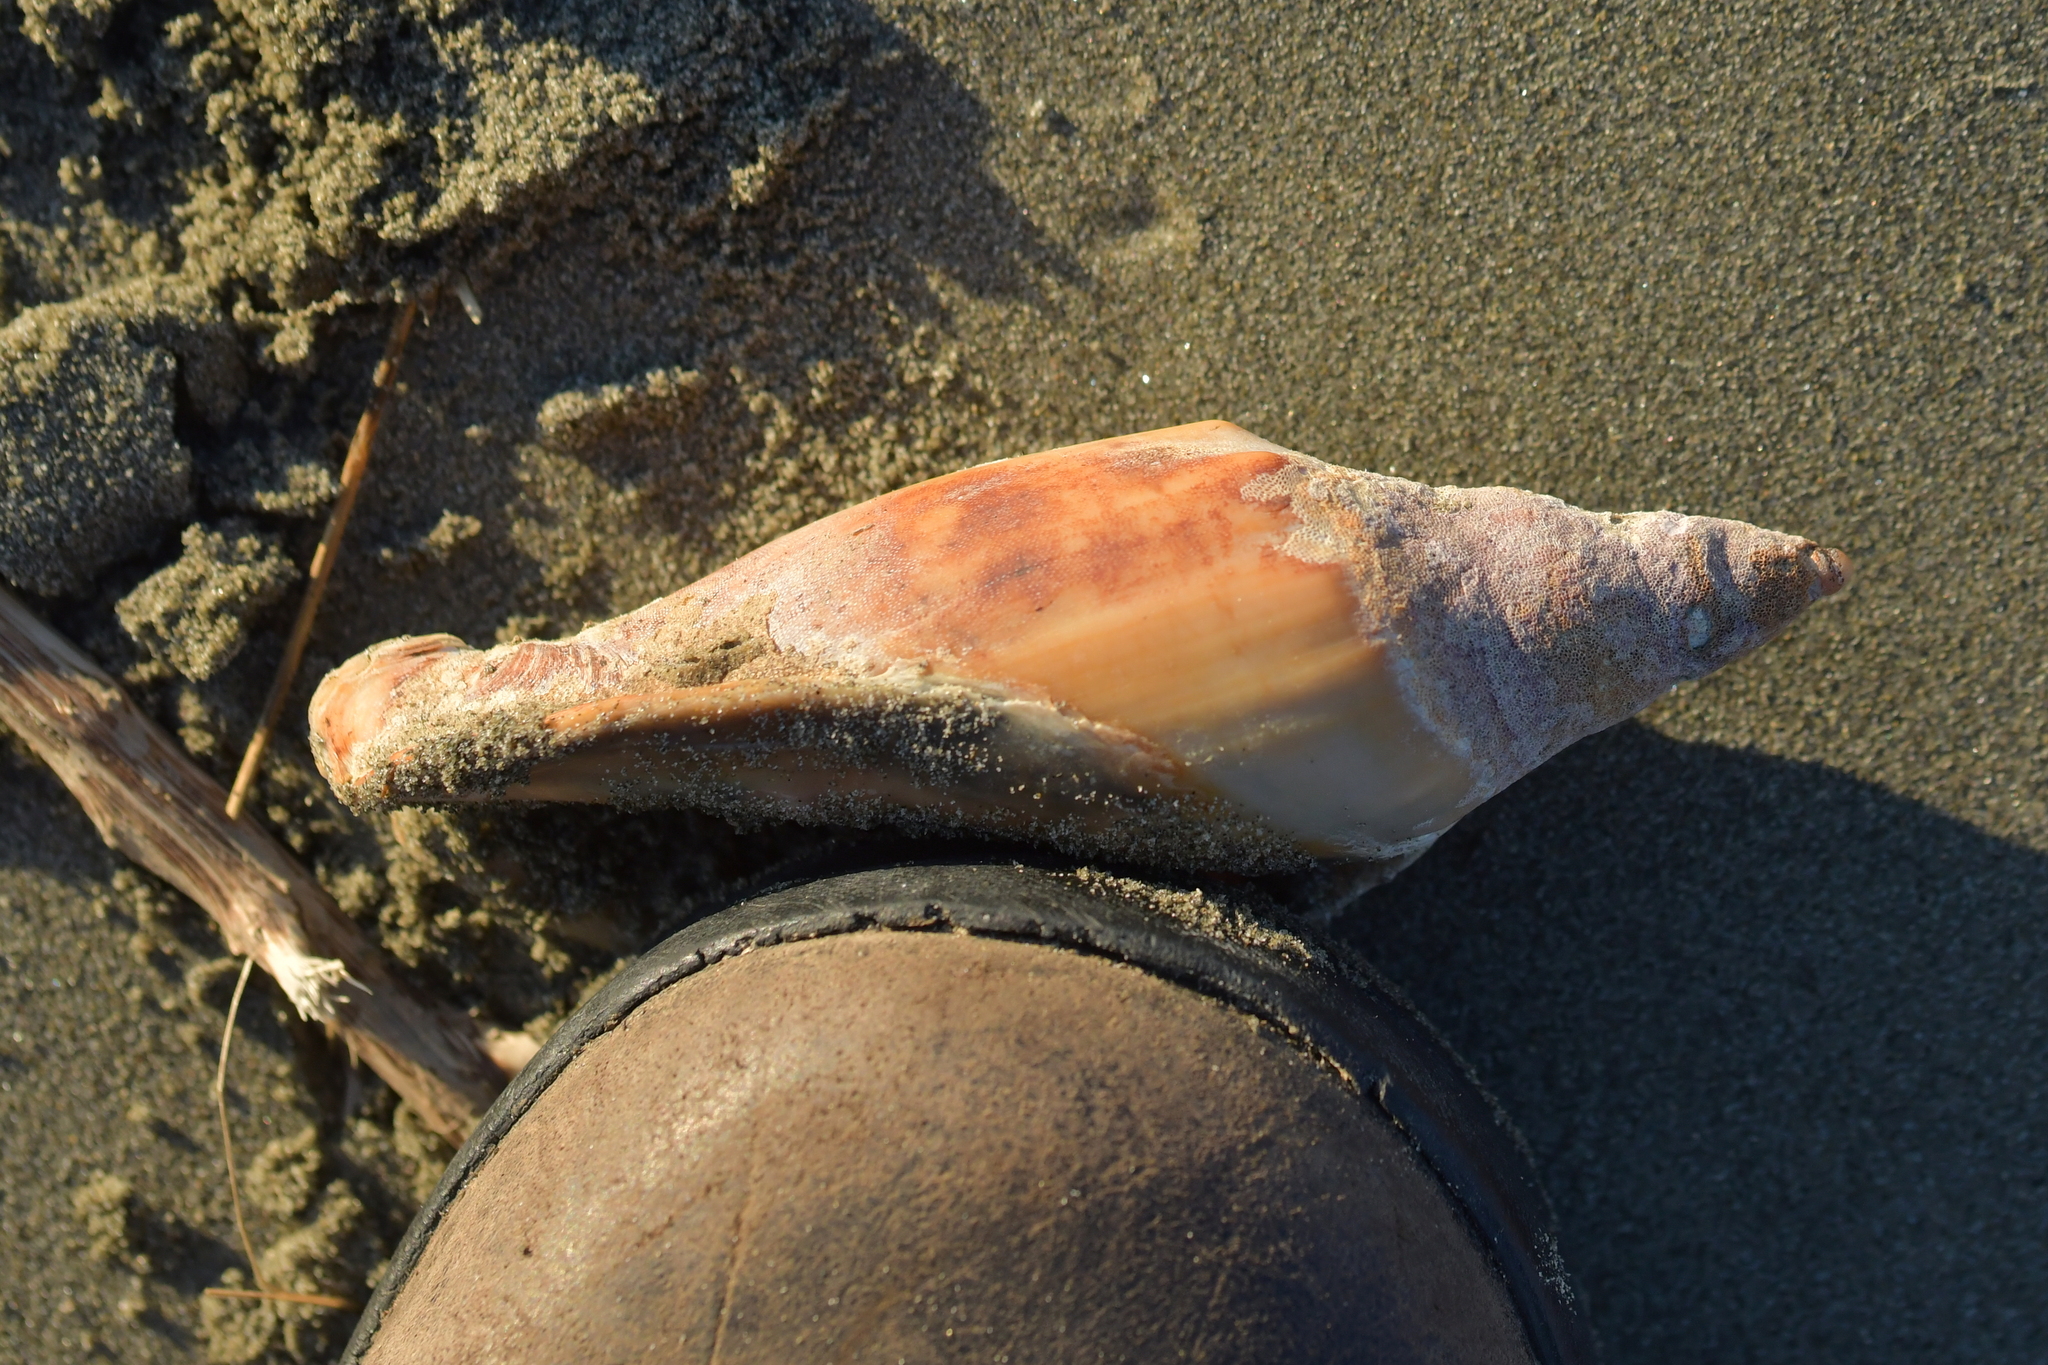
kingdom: Animalia
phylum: Mollusca
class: Gastropoda
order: Neogastropoda
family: Volutidae
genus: Alcithoe
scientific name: Alcithoe arabica
